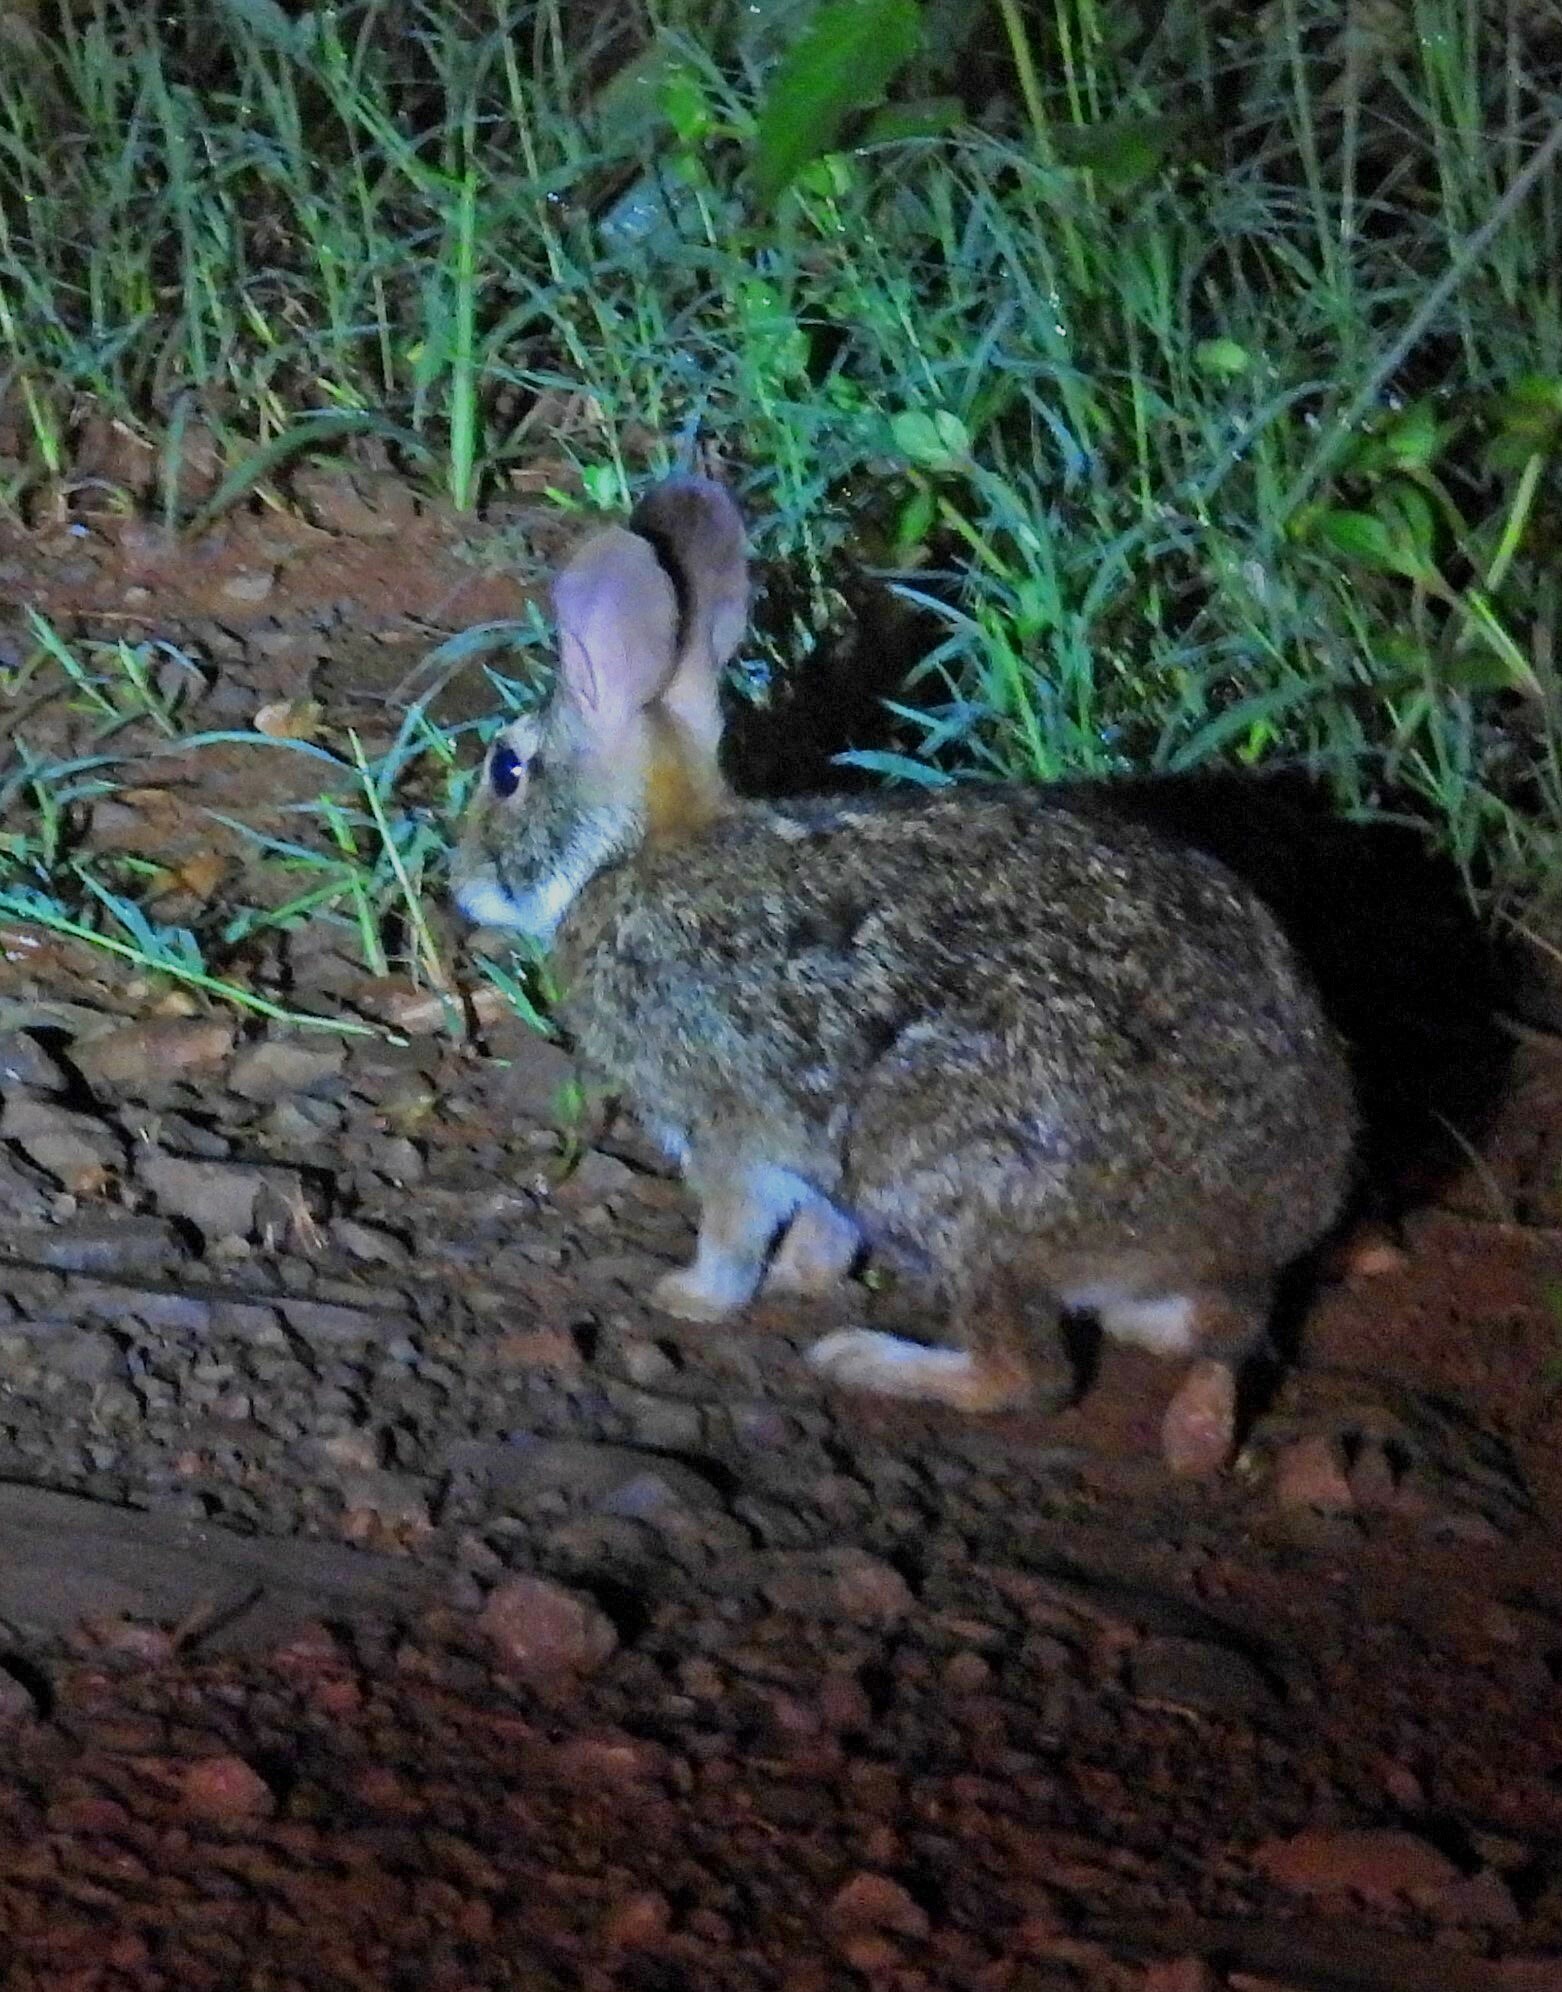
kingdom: Animalia
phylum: Chordata
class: Mammalia
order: Lagomorpha
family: Leporidae
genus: Sylvilagus
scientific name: Sylvilagus brasiliensis
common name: Tapeti
